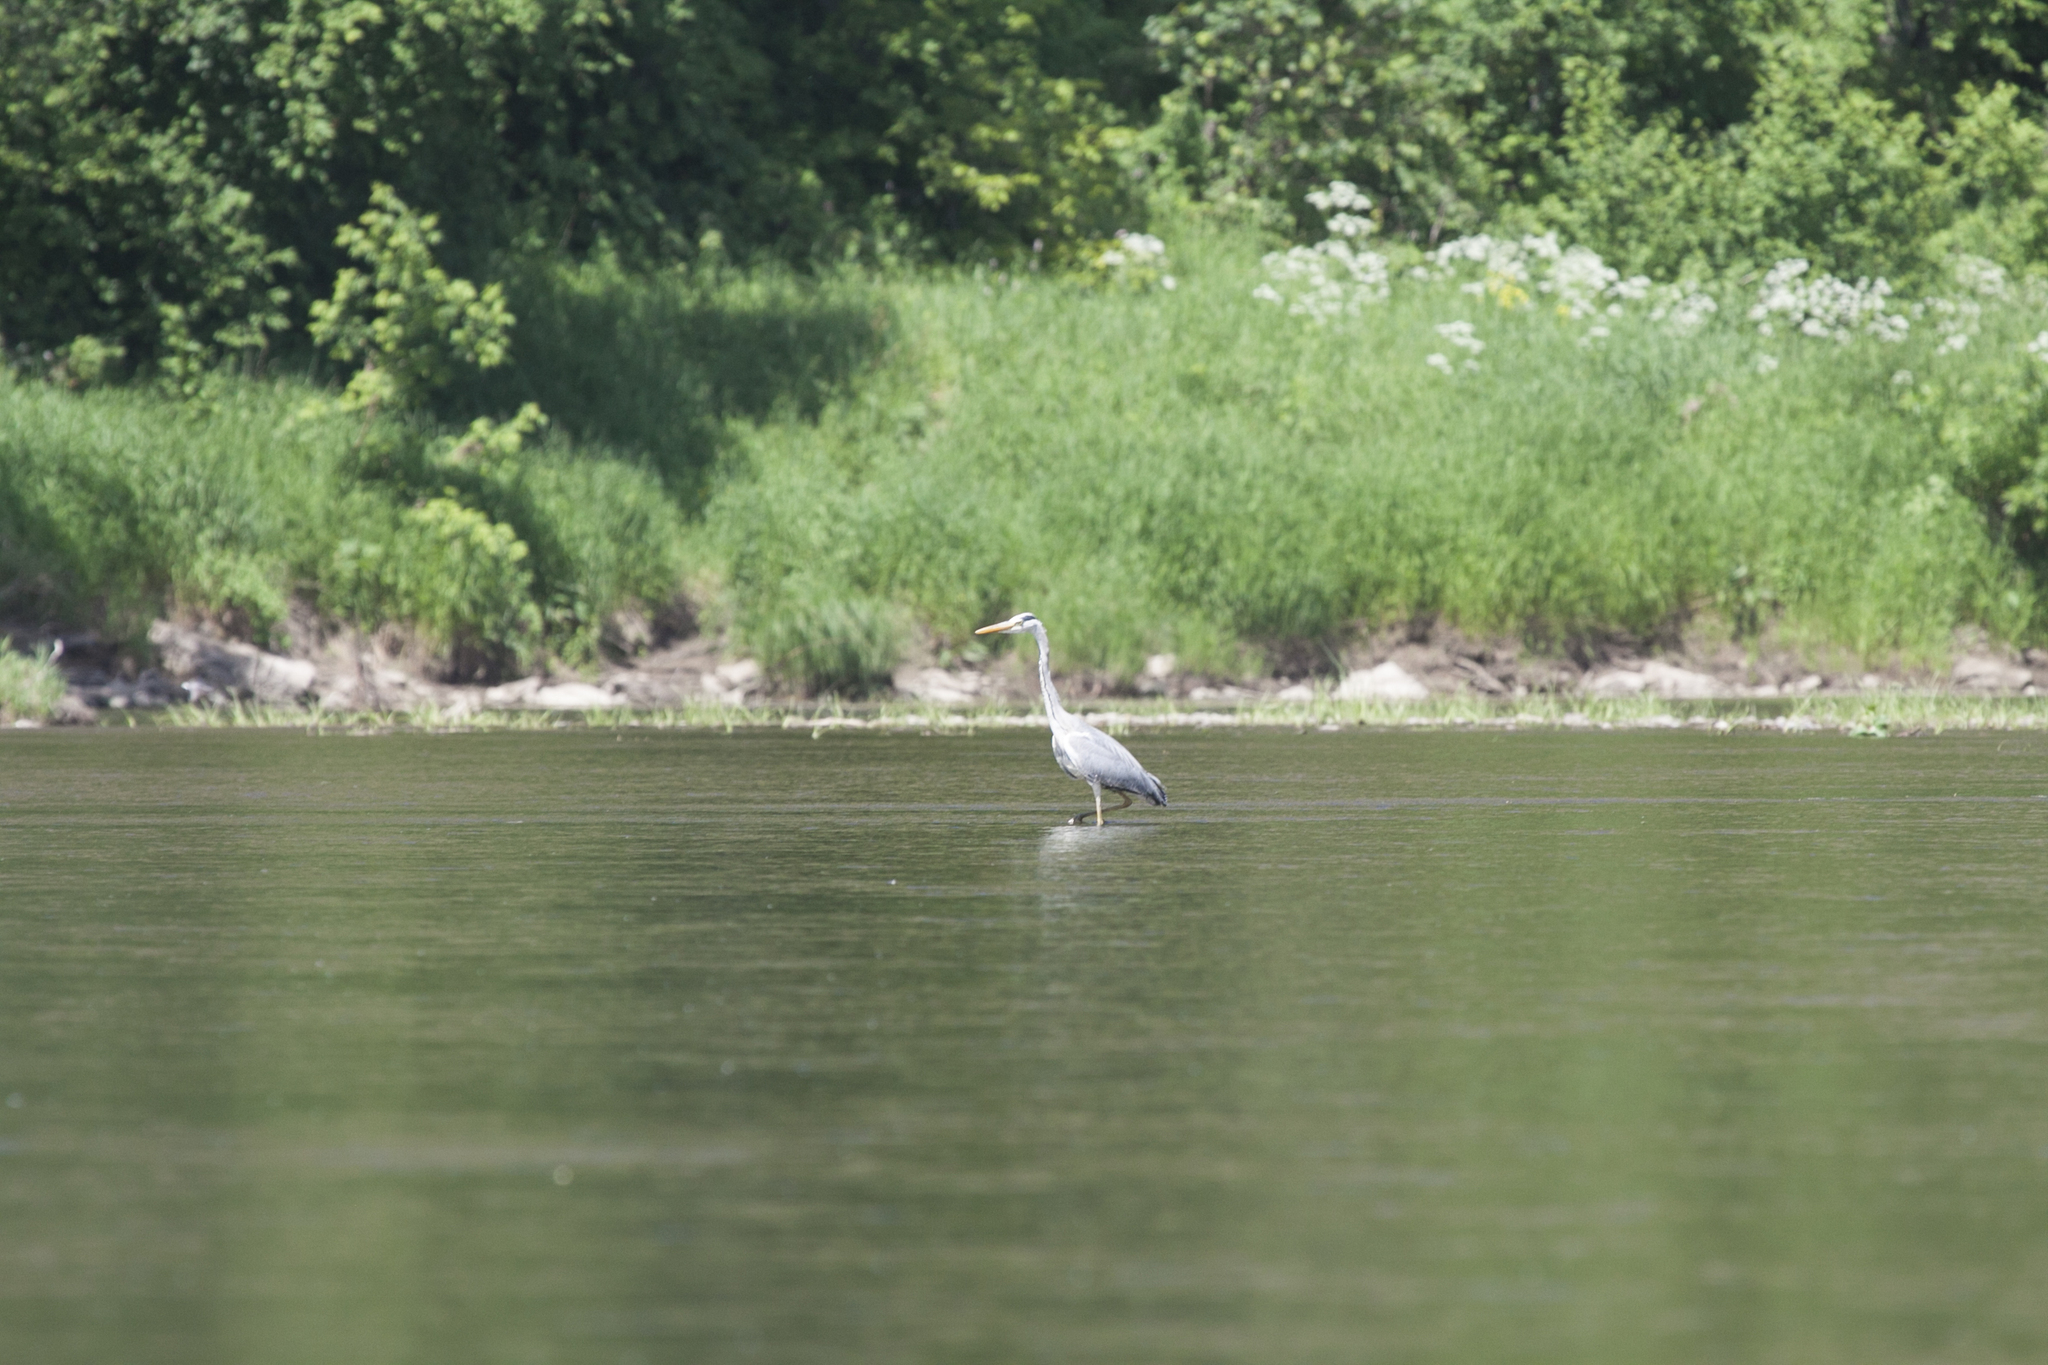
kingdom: Animalia
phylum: Chordata
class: Aves
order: Pelecaniformes
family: Ardeidae
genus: Ardea
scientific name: Ardea cinerea
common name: Grey heron
